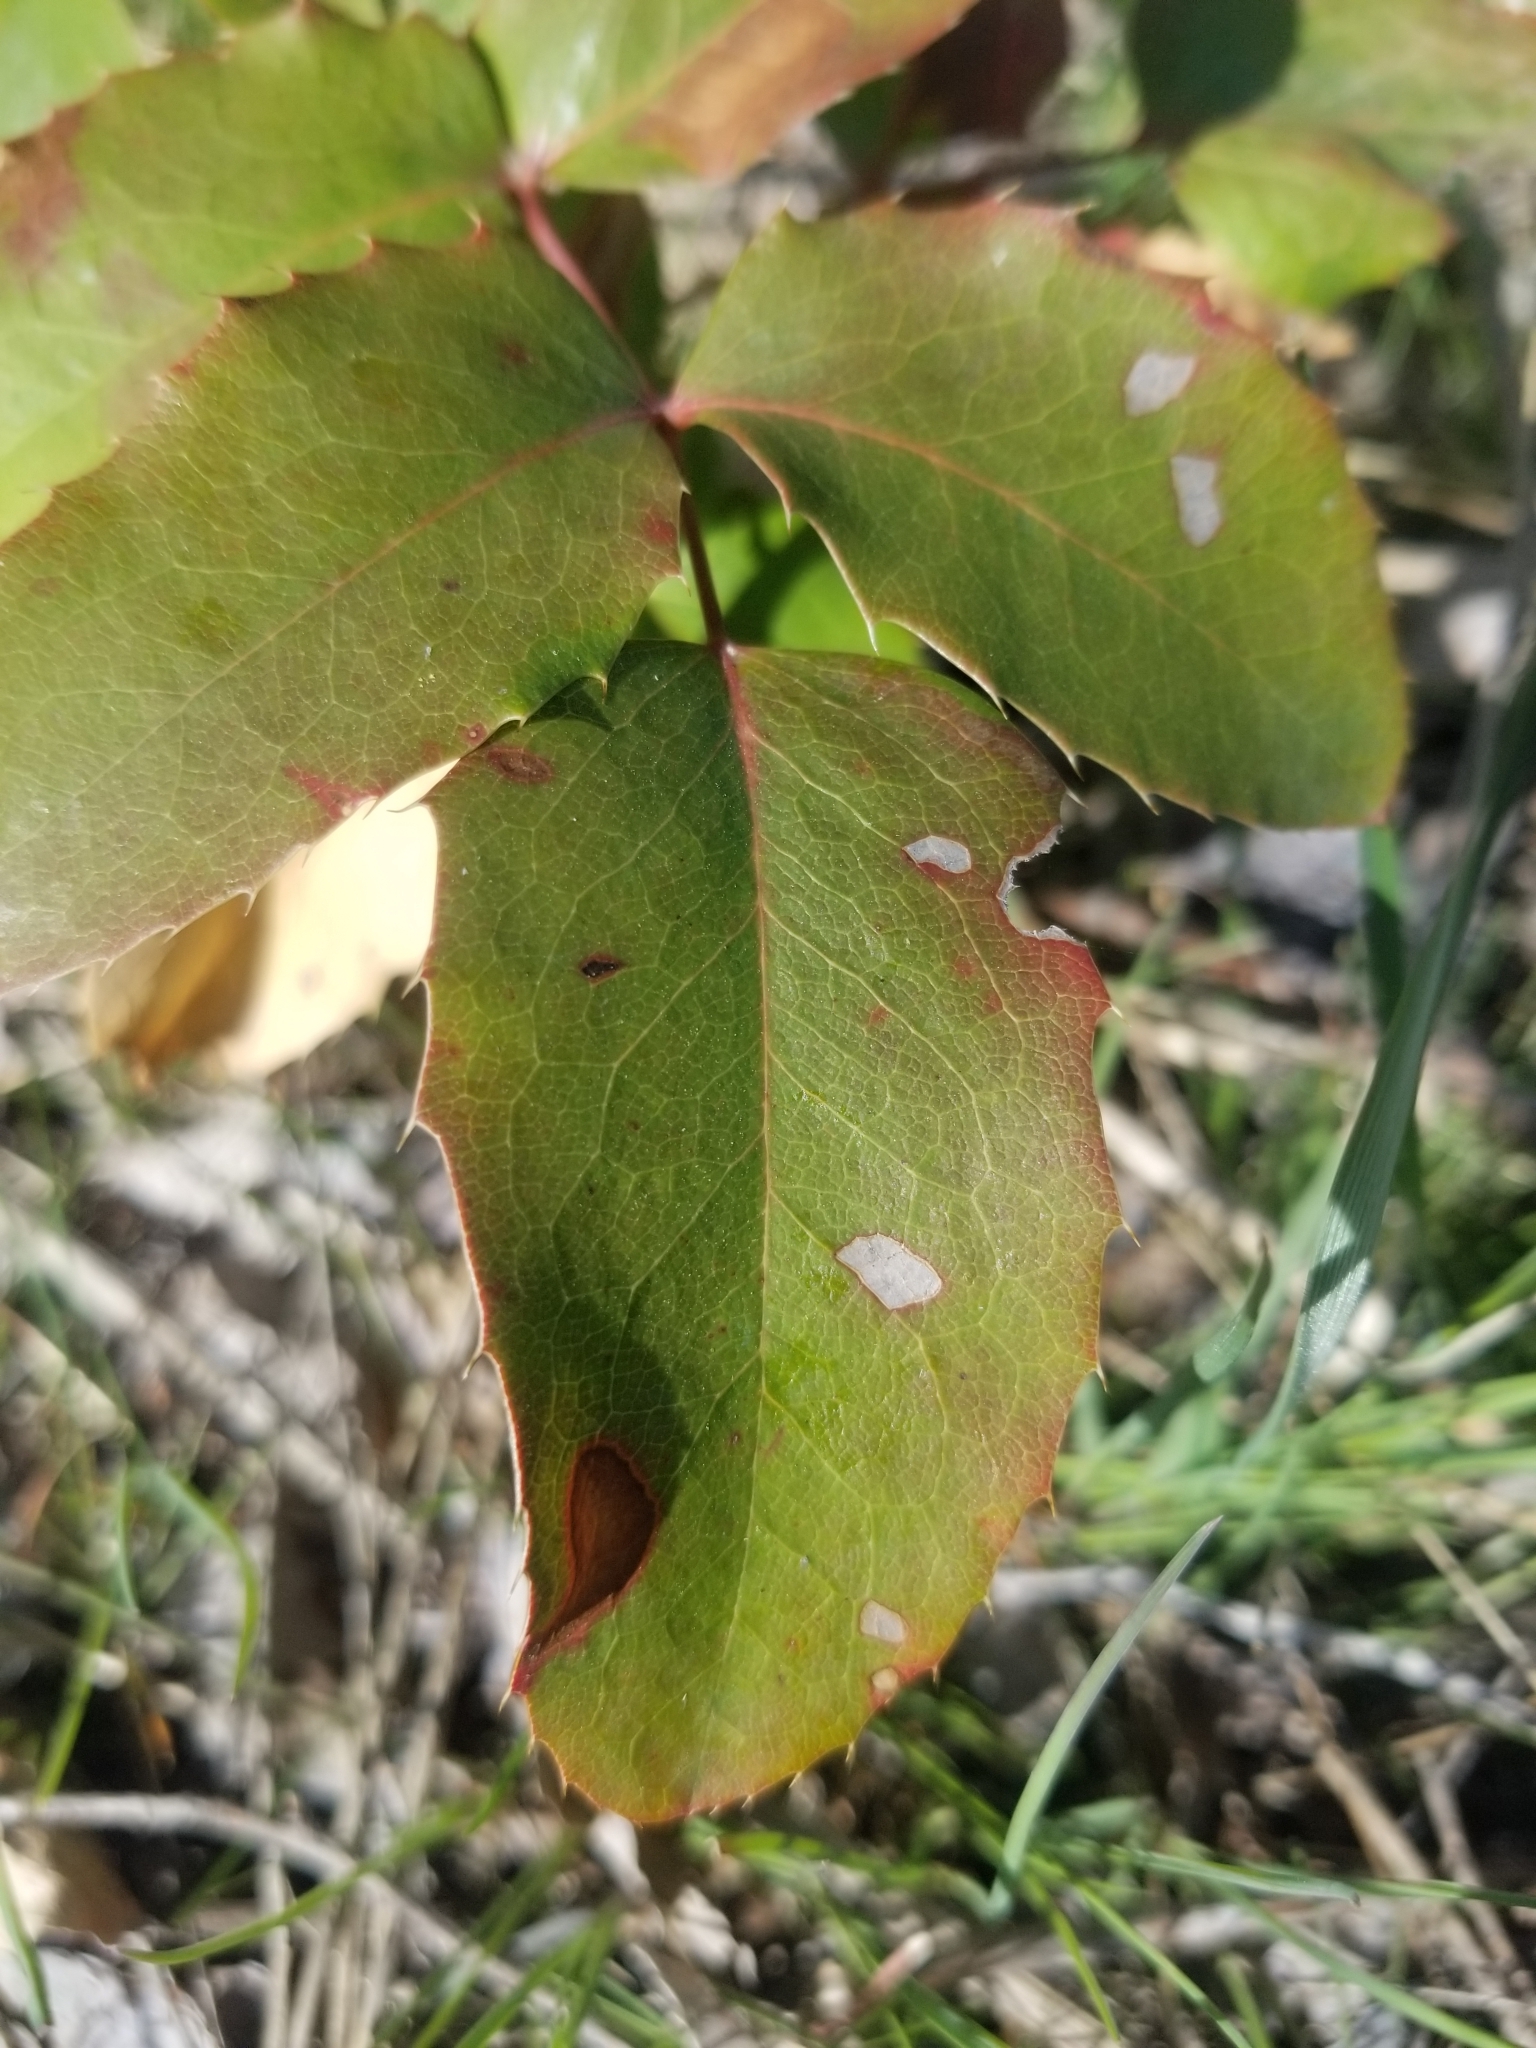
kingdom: Plantae
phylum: Tracheophyta
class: Magnoliopsida
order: Ranunculales
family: Berberidaceae
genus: Mahonia
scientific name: Mahonia repens
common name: Creeping oregon-grape
